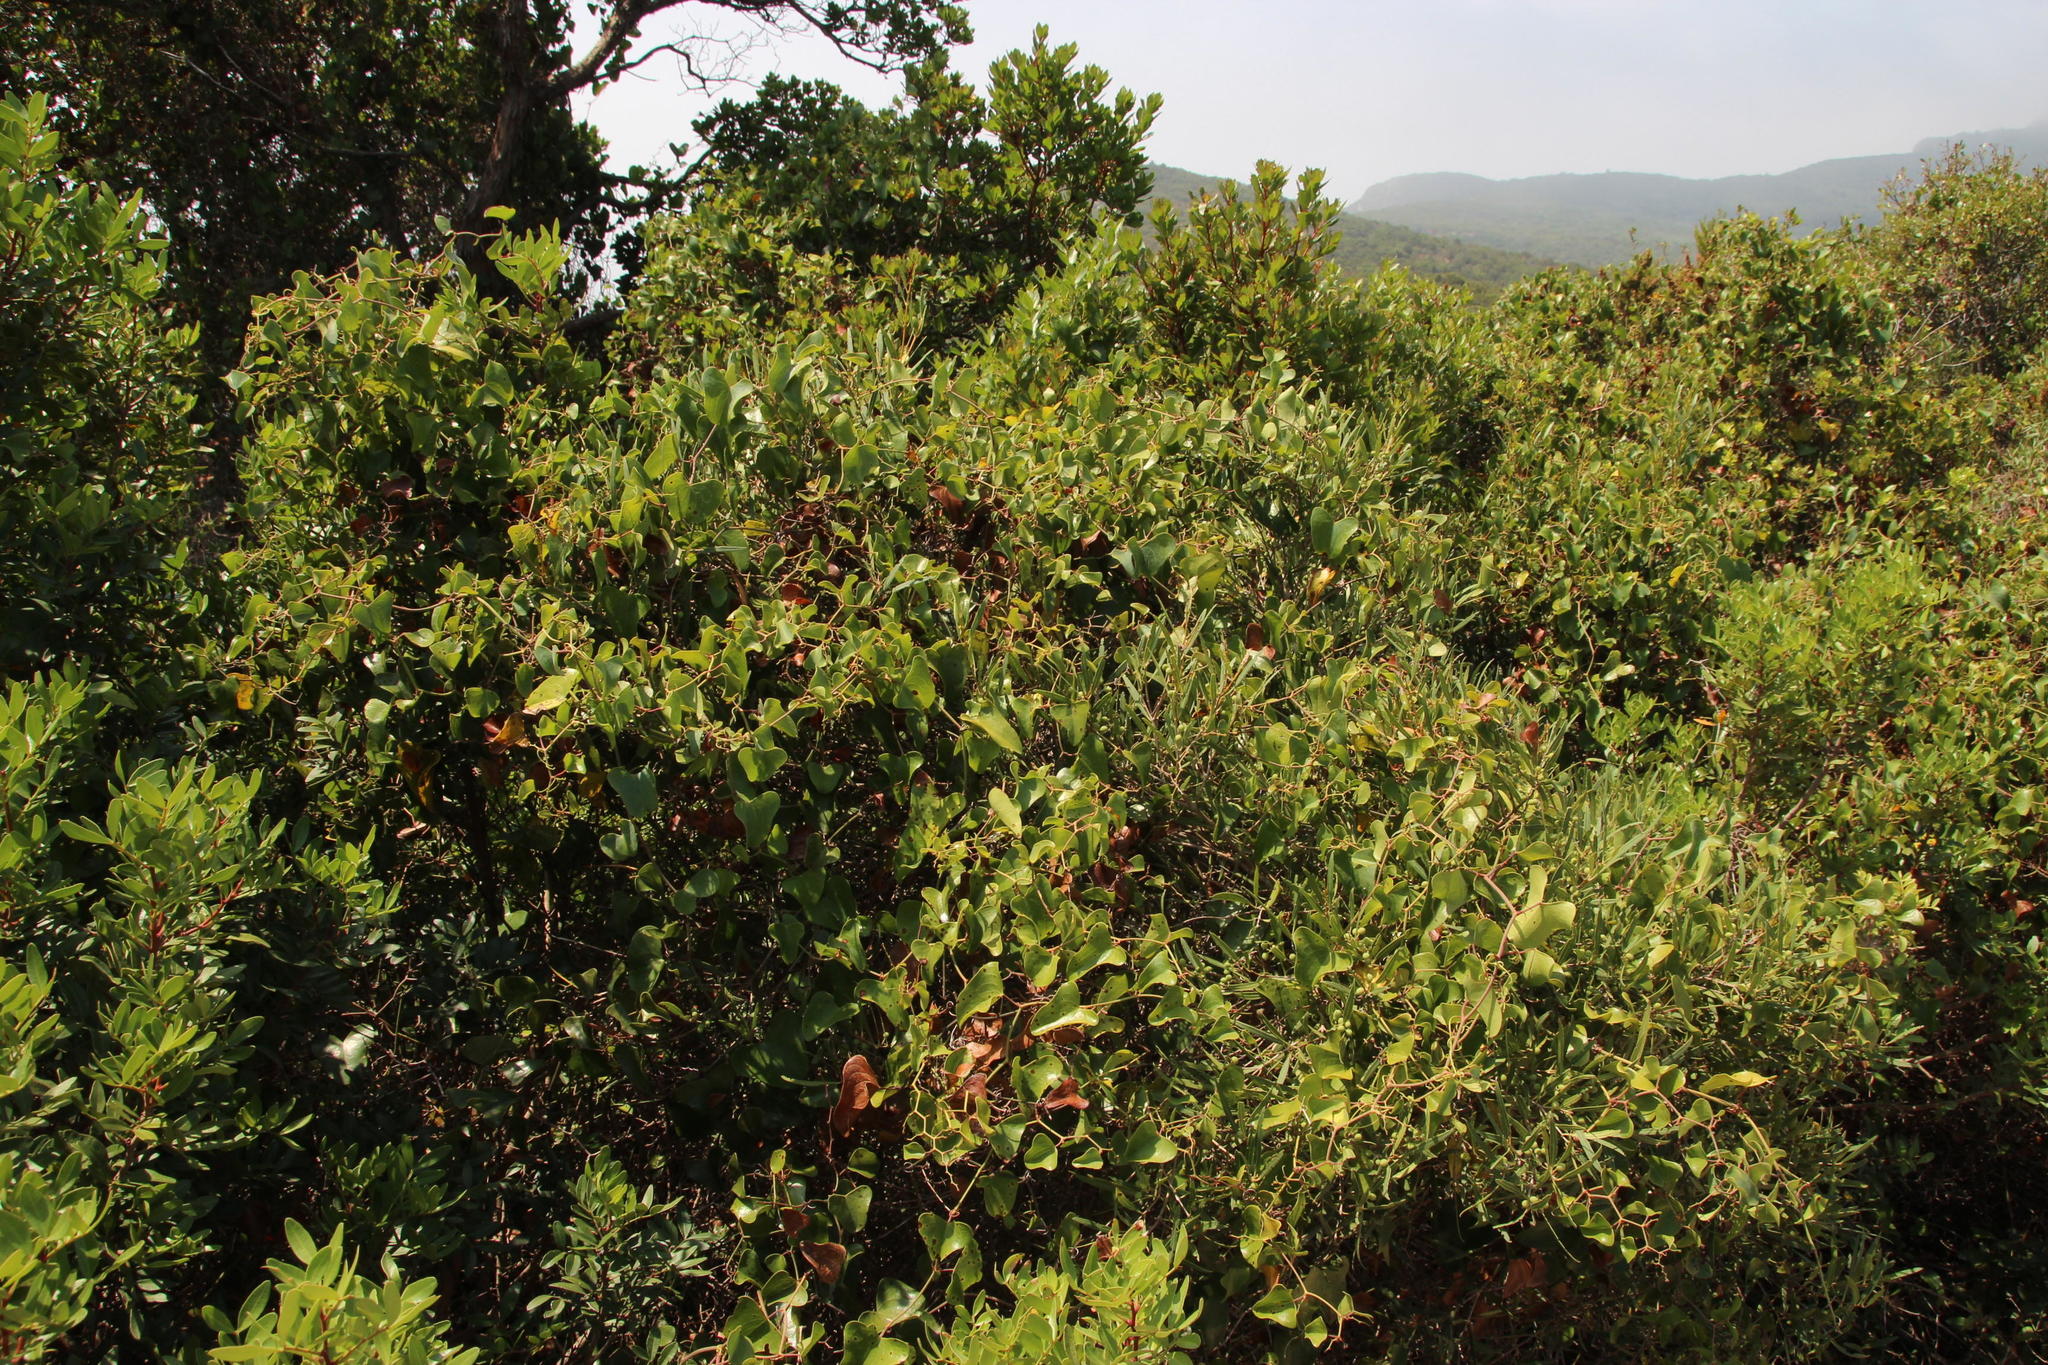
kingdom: Plantae
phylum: Tracheophyta
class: Liliopsida
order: Liliales
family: Smilacaceae
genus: Smilax
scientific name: Smilax aspera
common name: Common smilax
